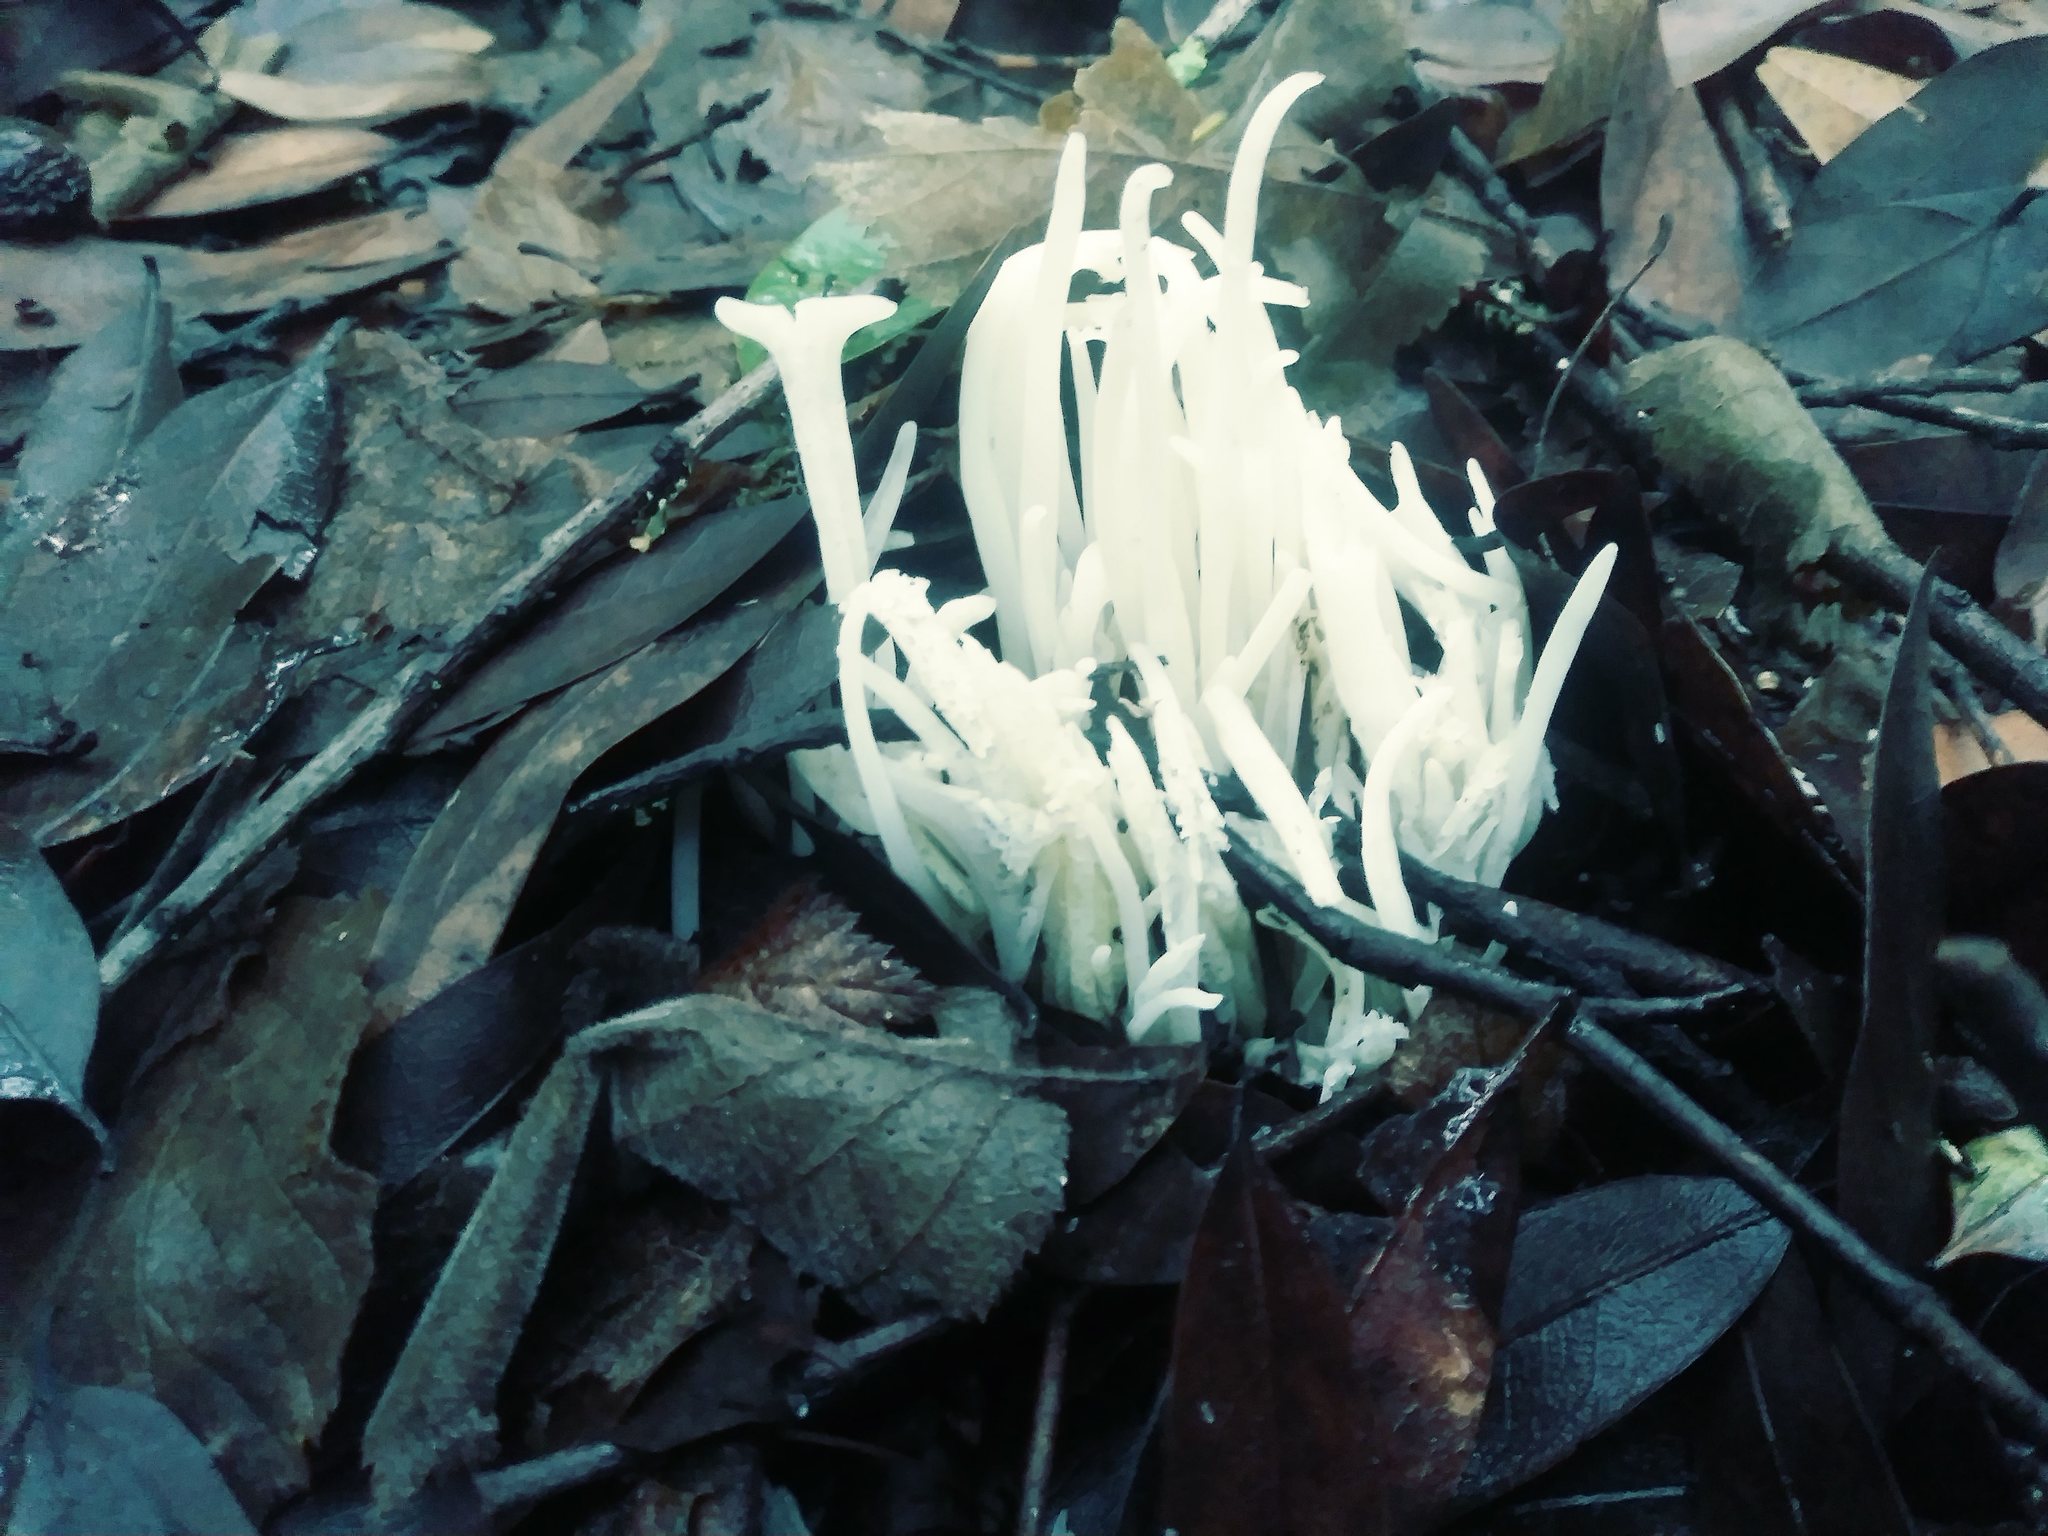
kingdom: Fungi
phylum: Basidiomycota
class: Agaricomycetes
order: Agaricales
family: Clavariaceae
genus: Clavaria
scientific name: Clavaria fragilis
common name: White spindles
